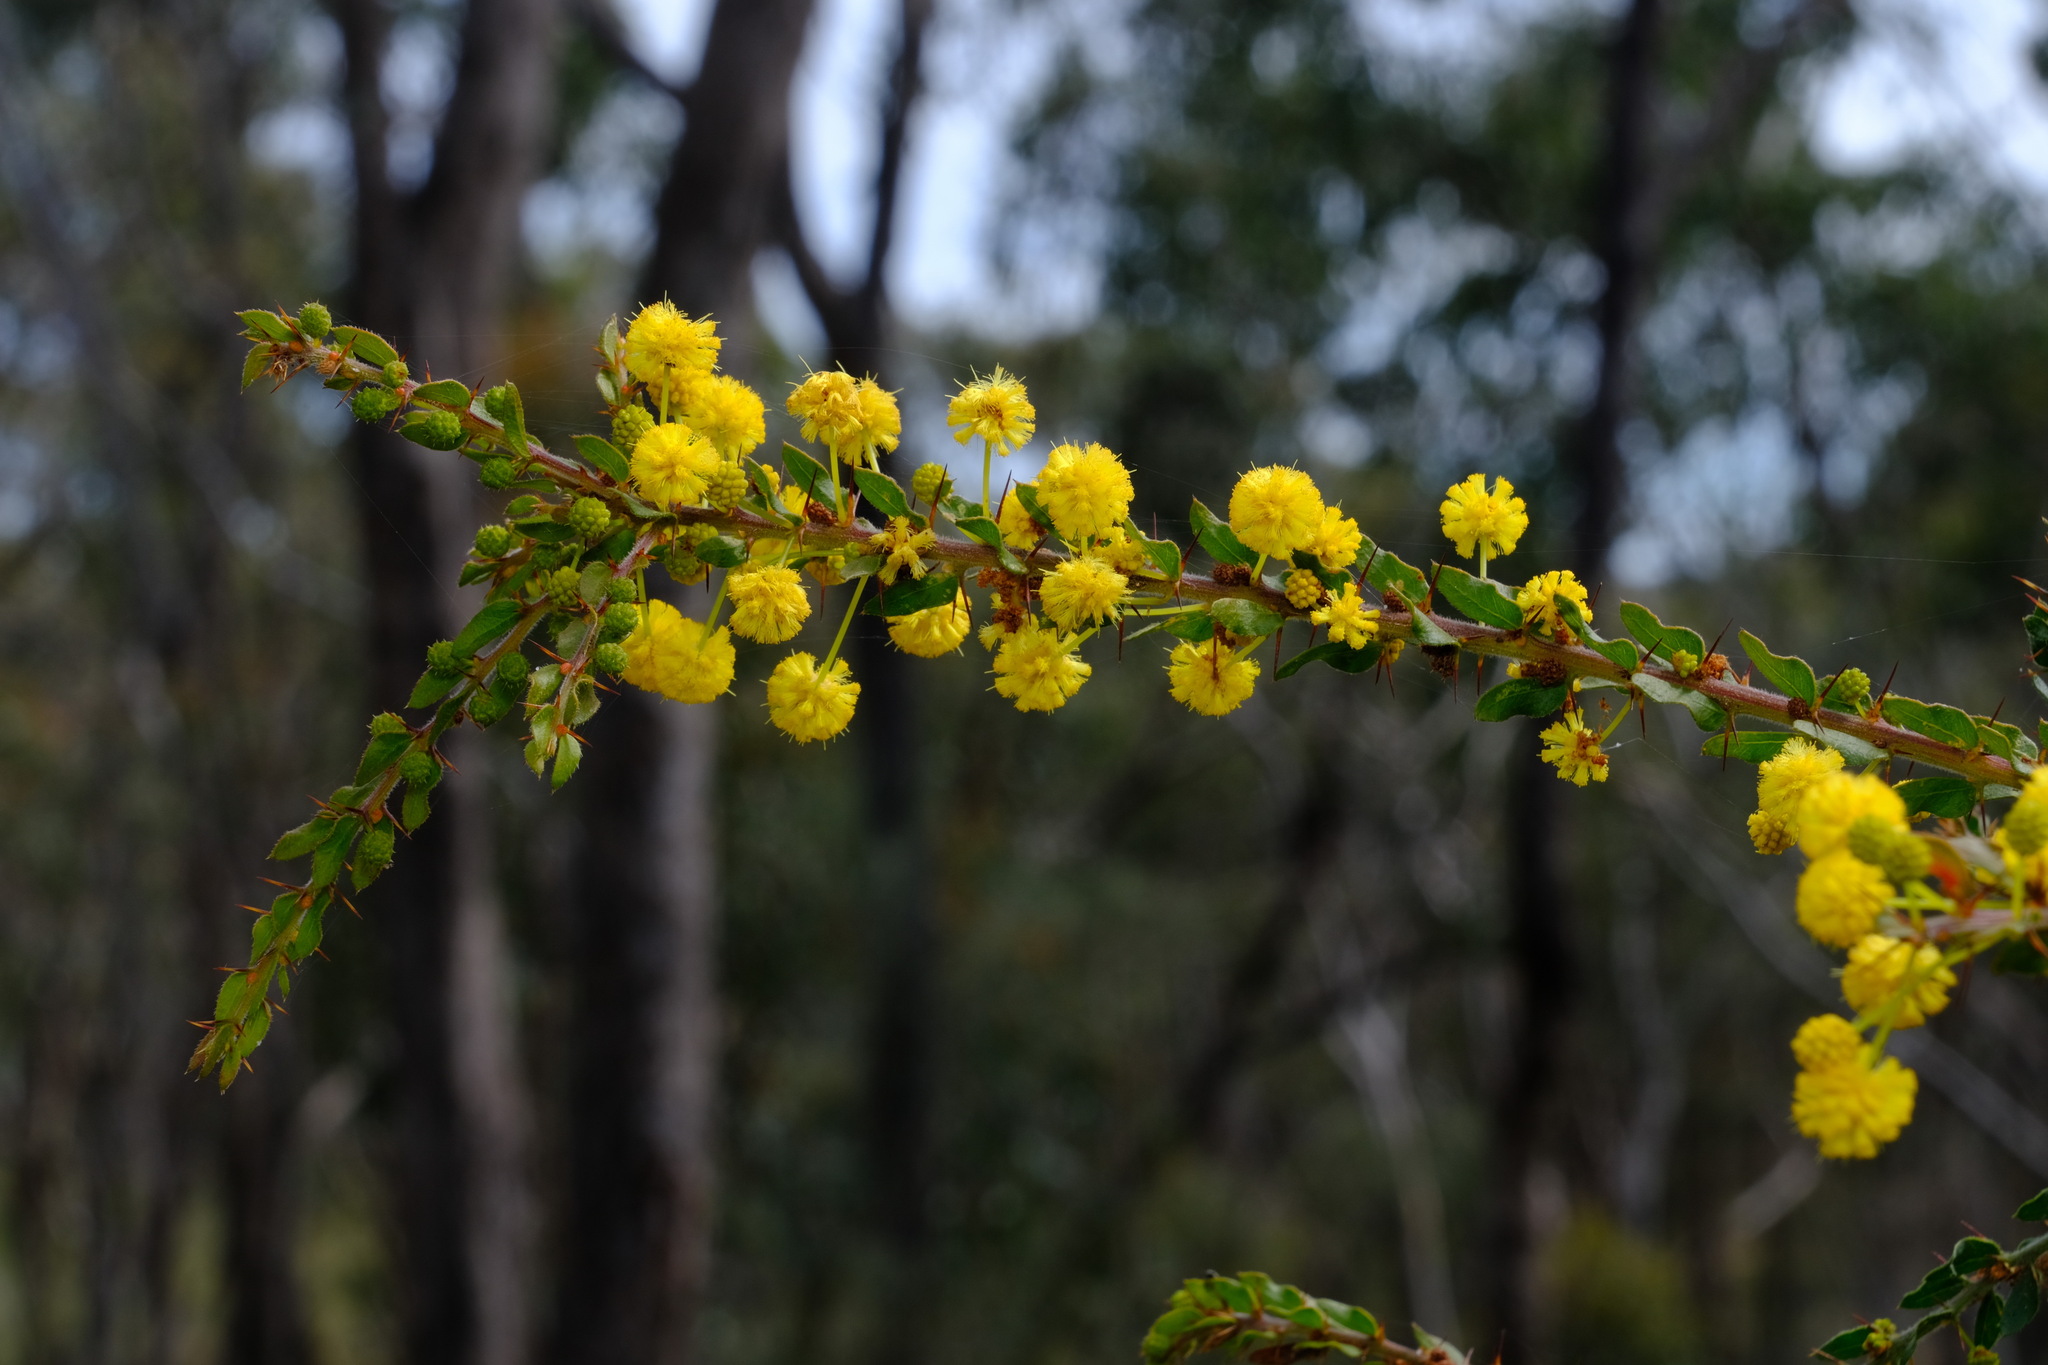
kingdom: Plantae
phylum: Tracheophyta
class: Magnoliopsida
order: Fabales
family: Fabaceae
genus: Acacia
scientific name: Acacia paradoxa
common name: Paradox acacia
